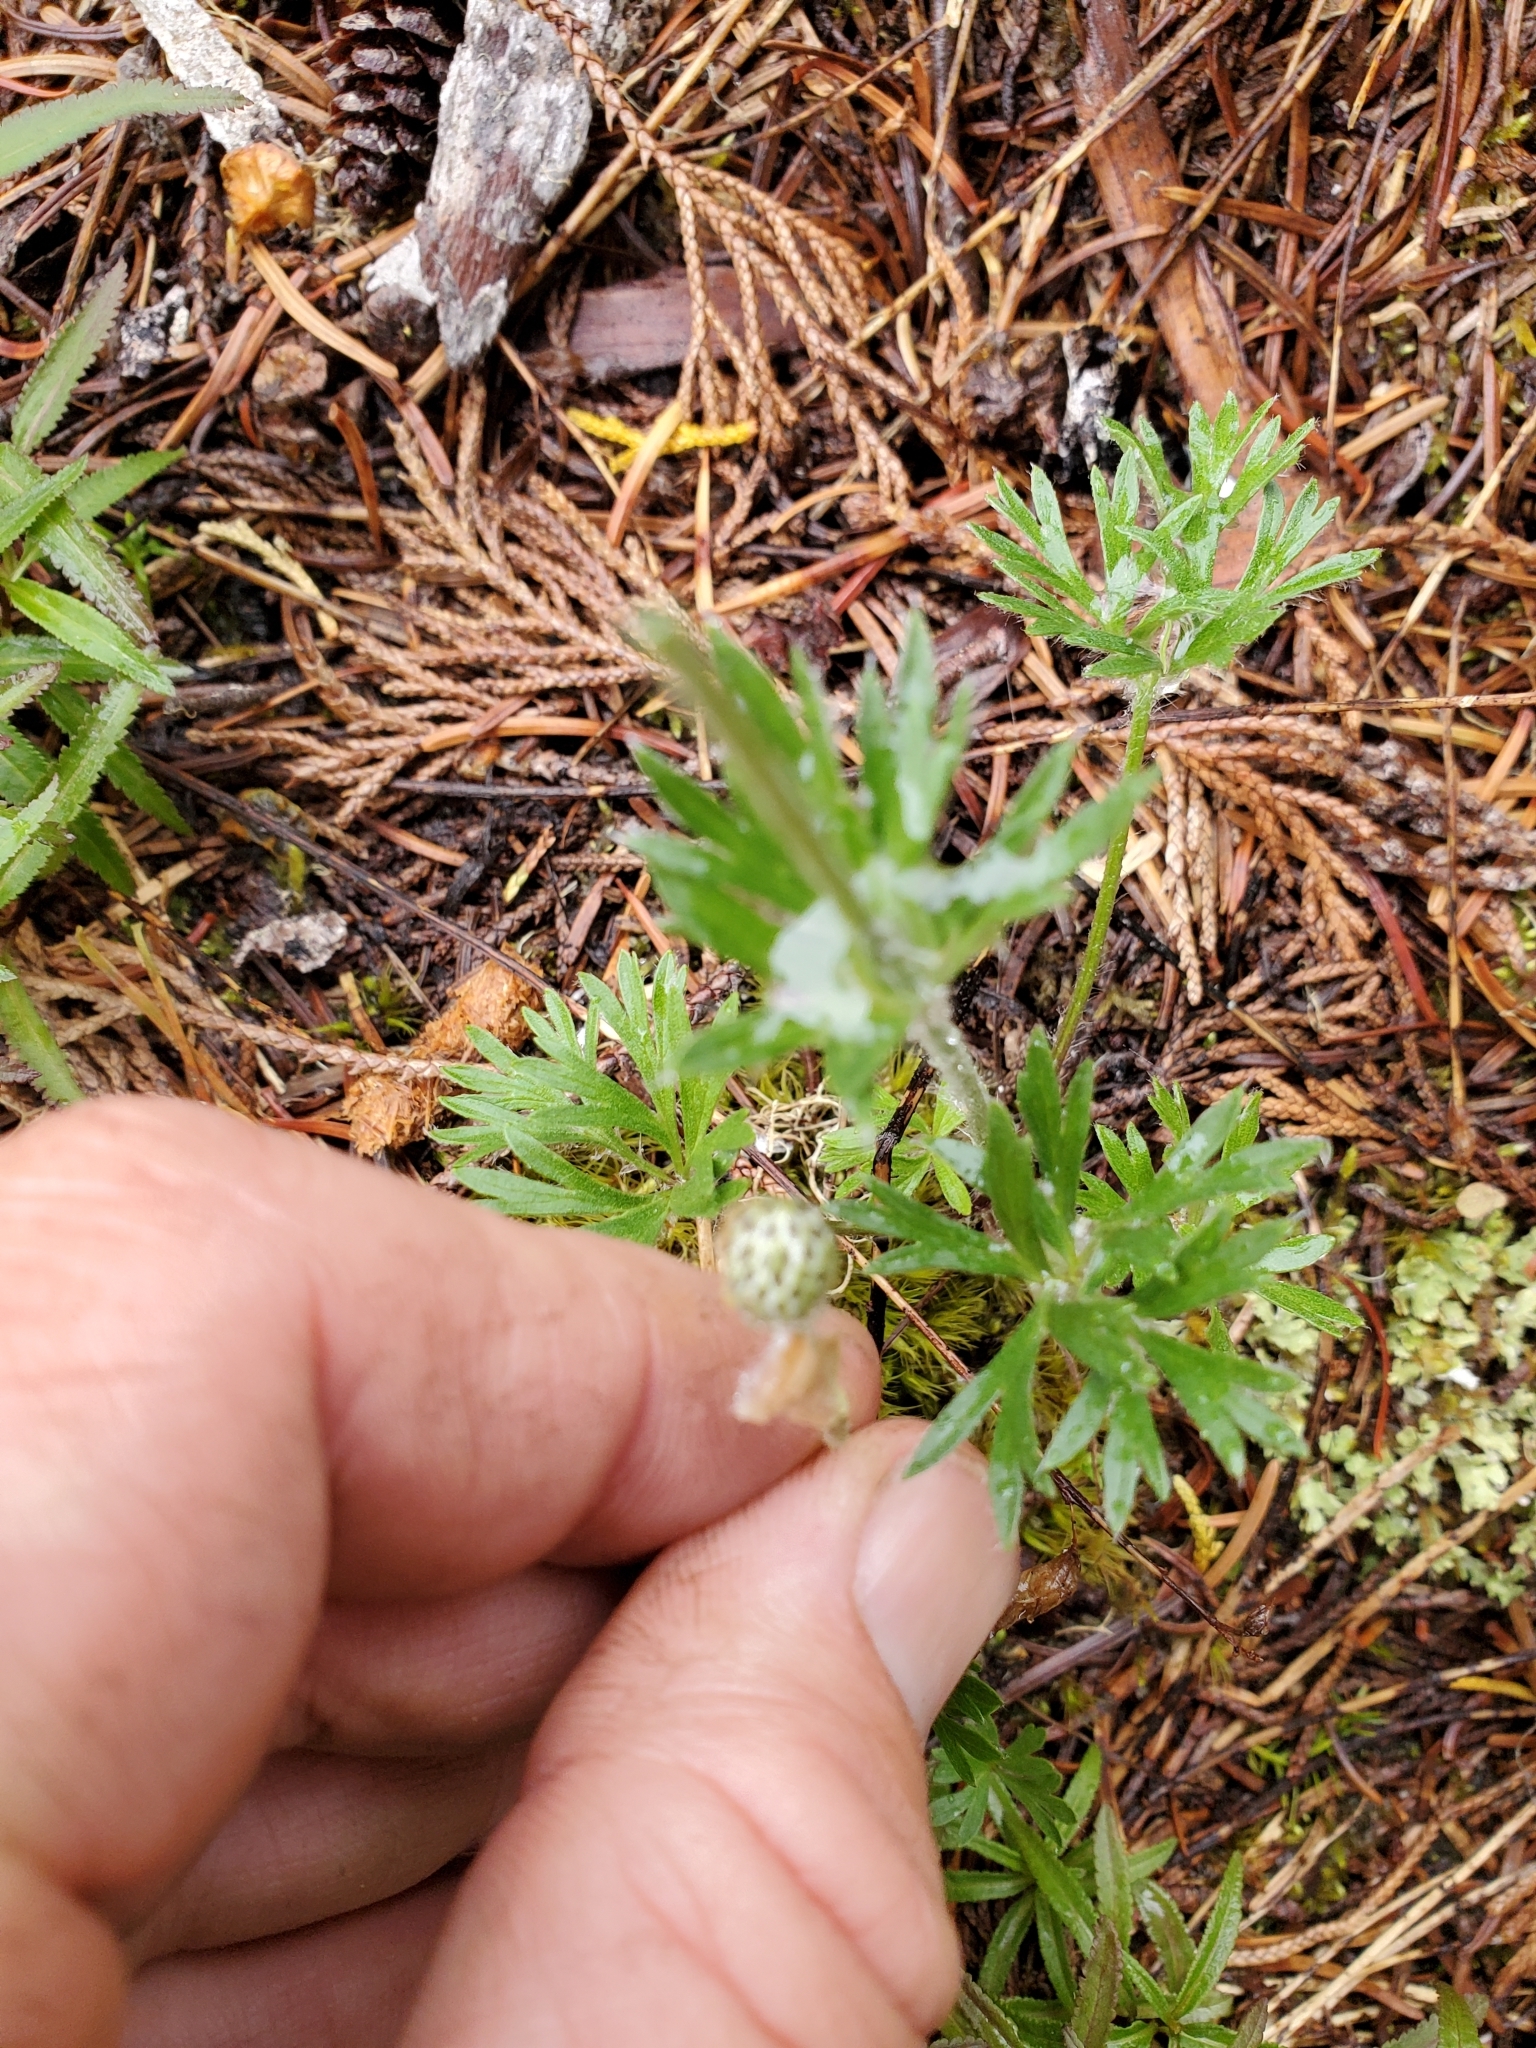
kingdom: Plantae
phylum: Tracheophyta
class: Magnoliopsida
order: Ranunculales
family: Ranunculaceae
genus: Anemone
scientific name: Anemone multifida
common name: Bird's-foot anemone
